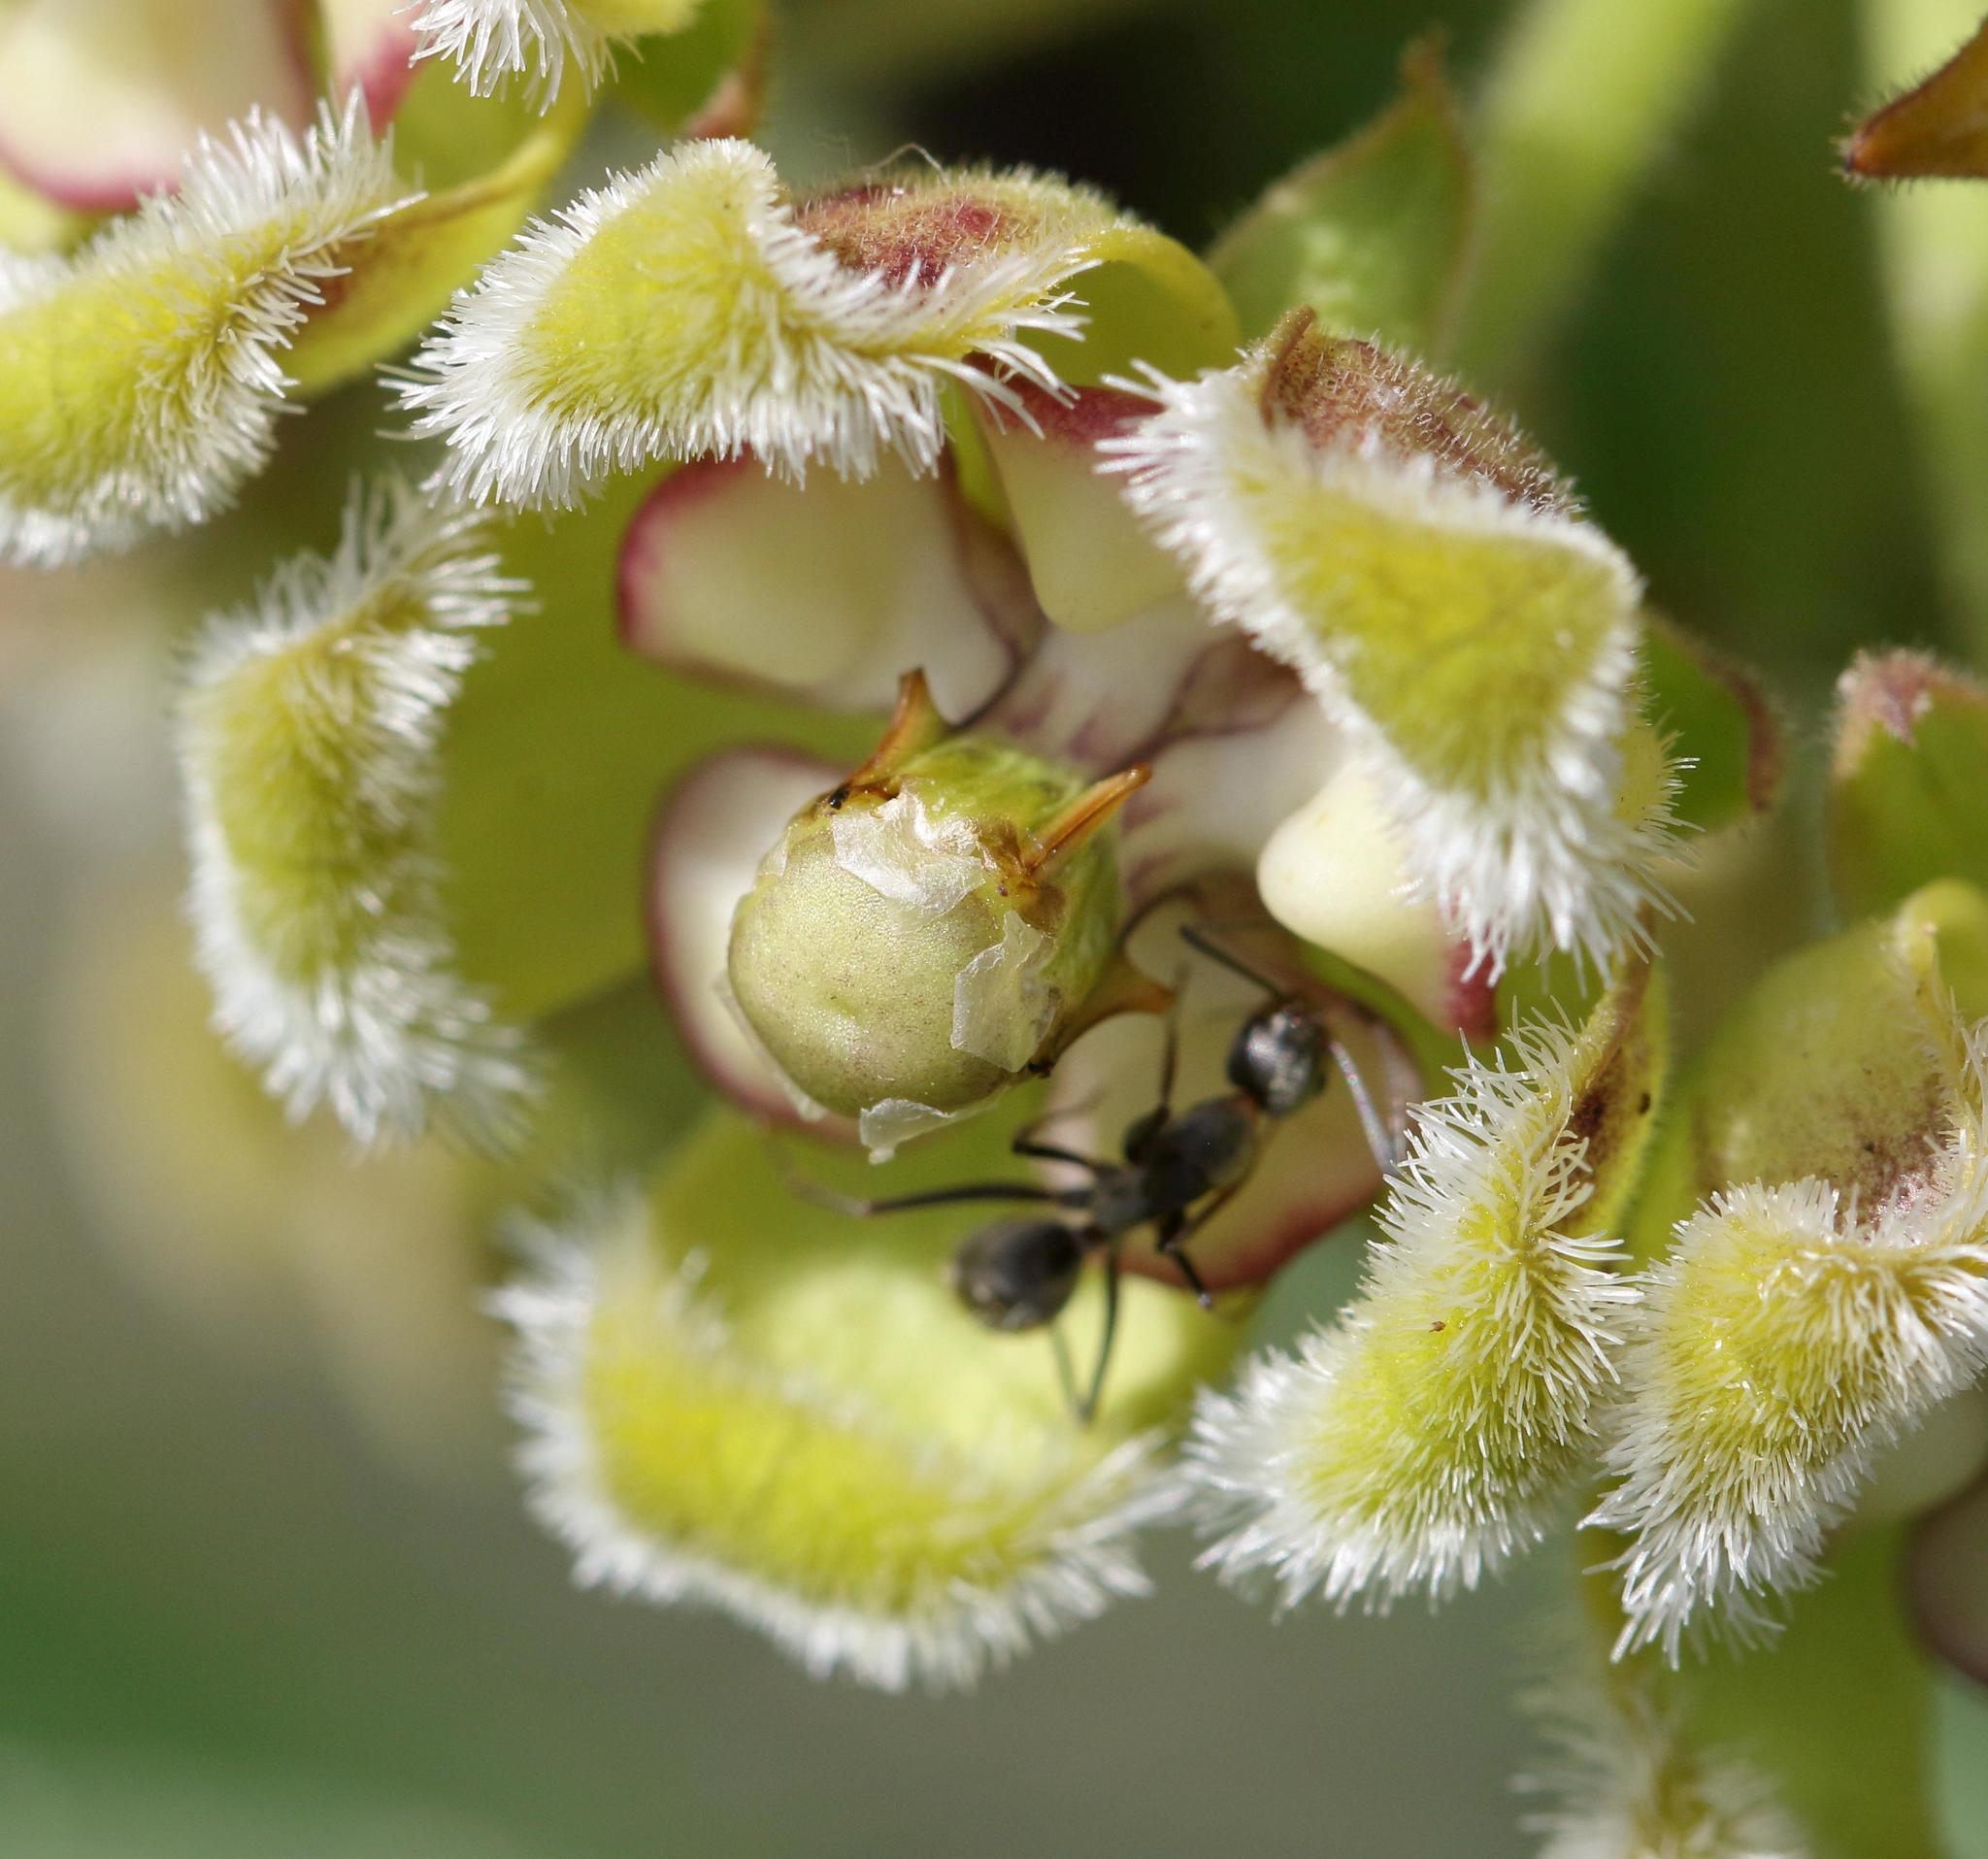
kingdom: Animalia
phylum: Arthropoda
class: Insecta
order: Hymenoptera
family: Formicidae
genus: Camponotus
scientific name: Camponotus cinctellus
